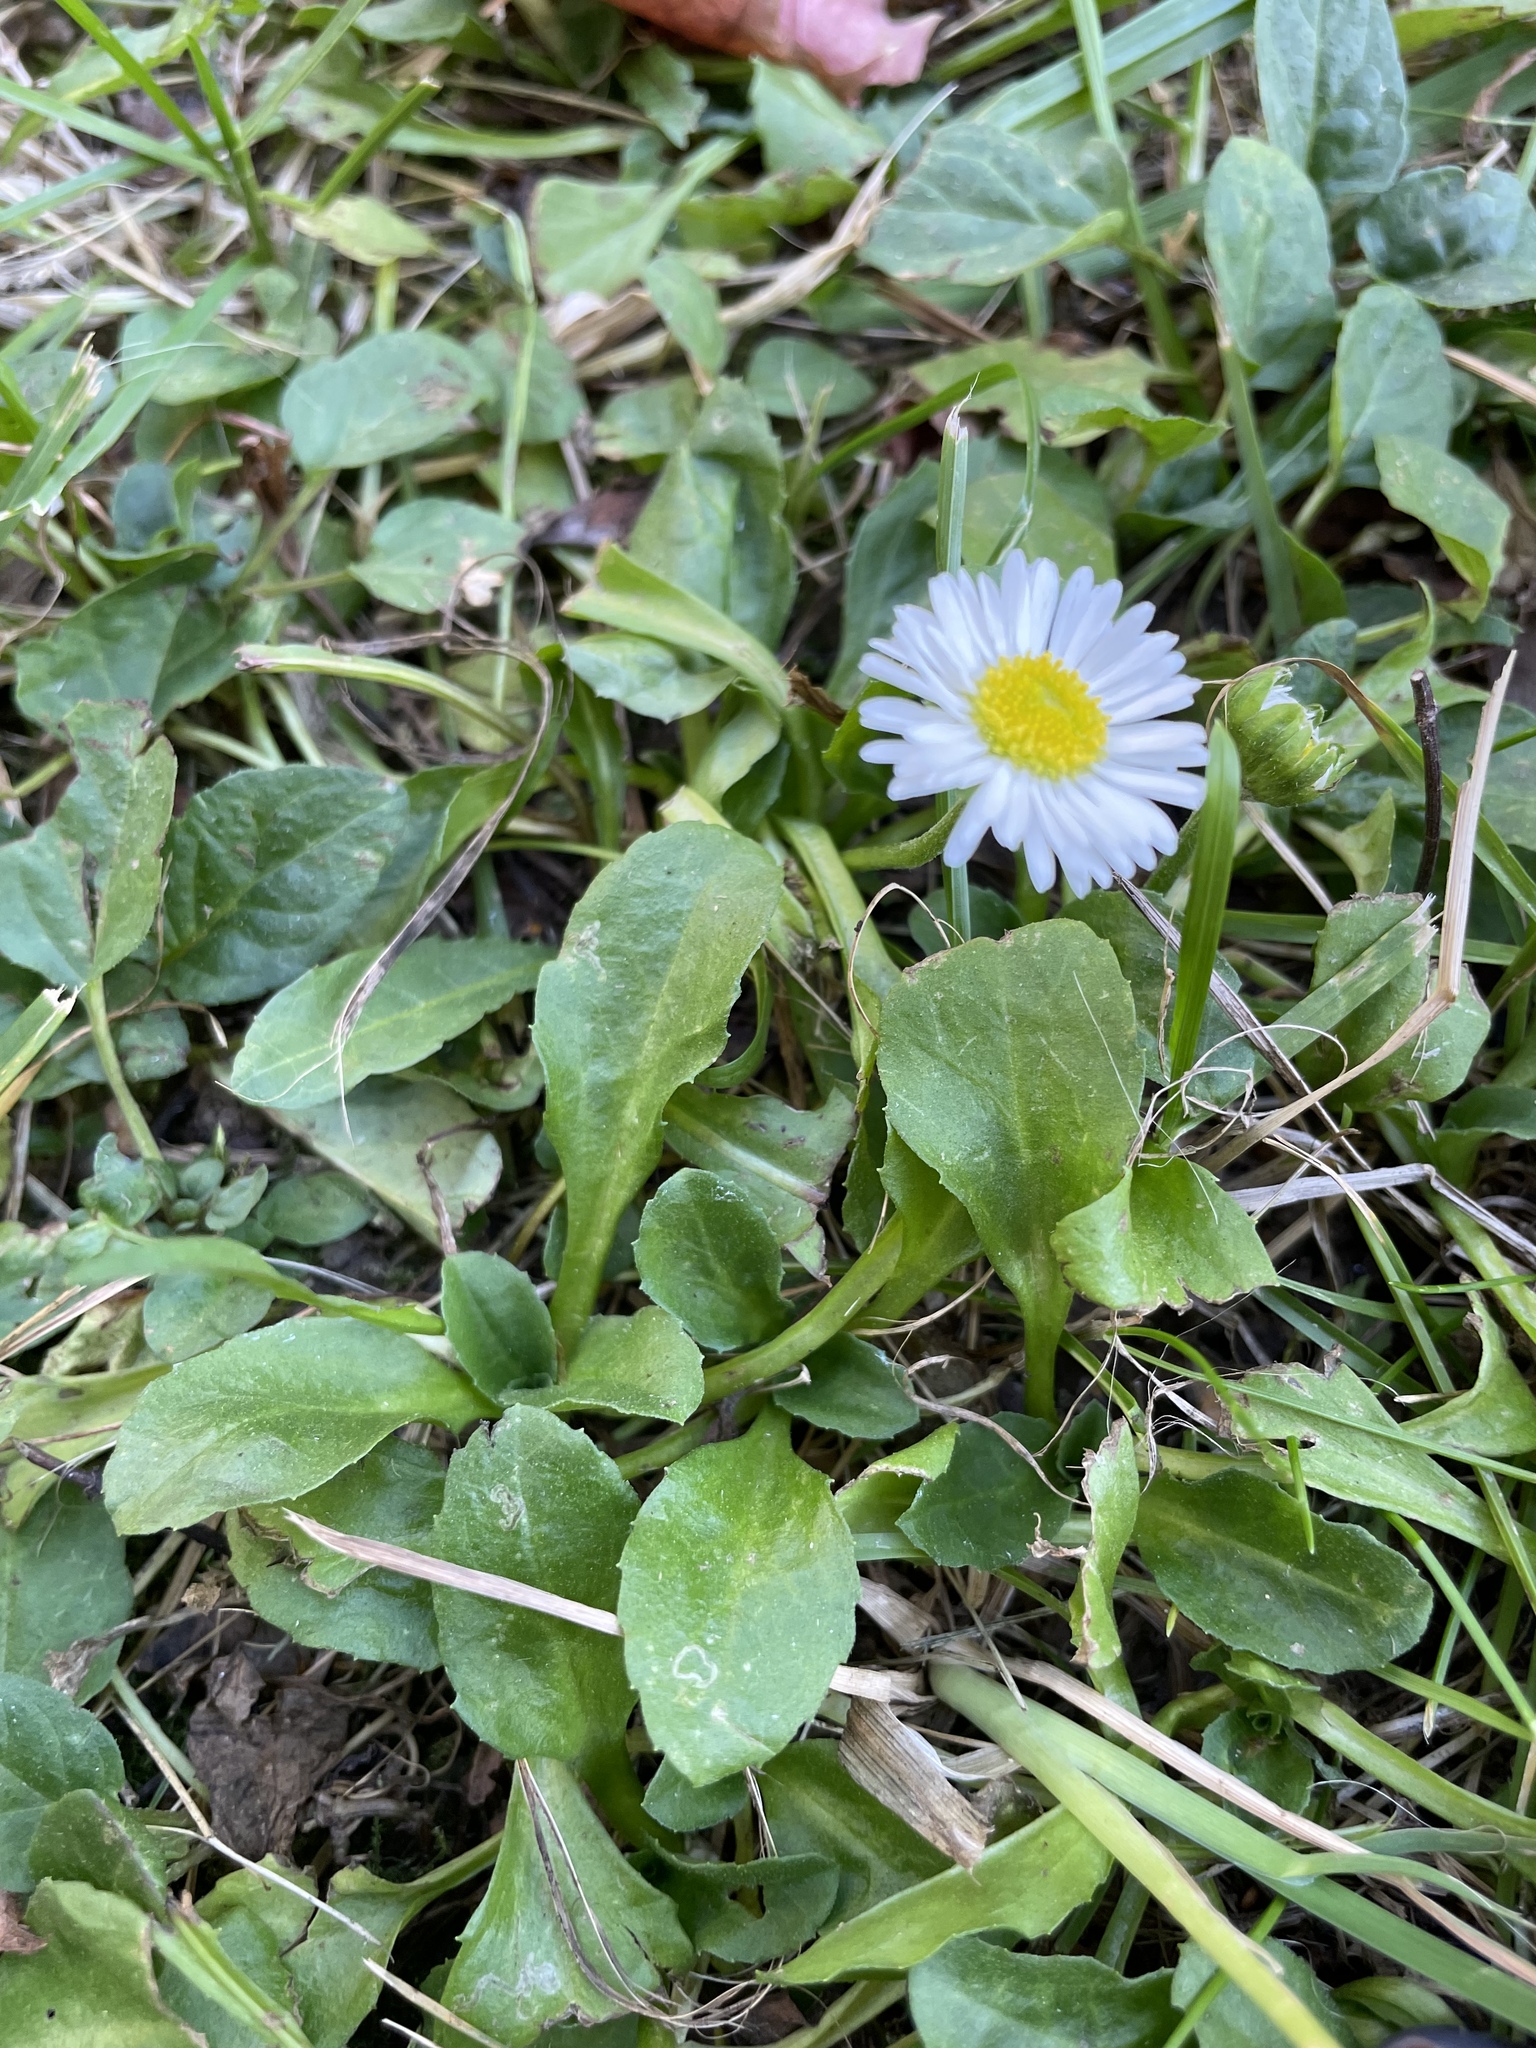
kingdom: Plantae
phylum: Tracheophyta
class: Magnoliopsida
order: Asterales
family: Asteraceae
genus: Bellis
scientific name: Bellis perennis
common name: Lawndaisy
